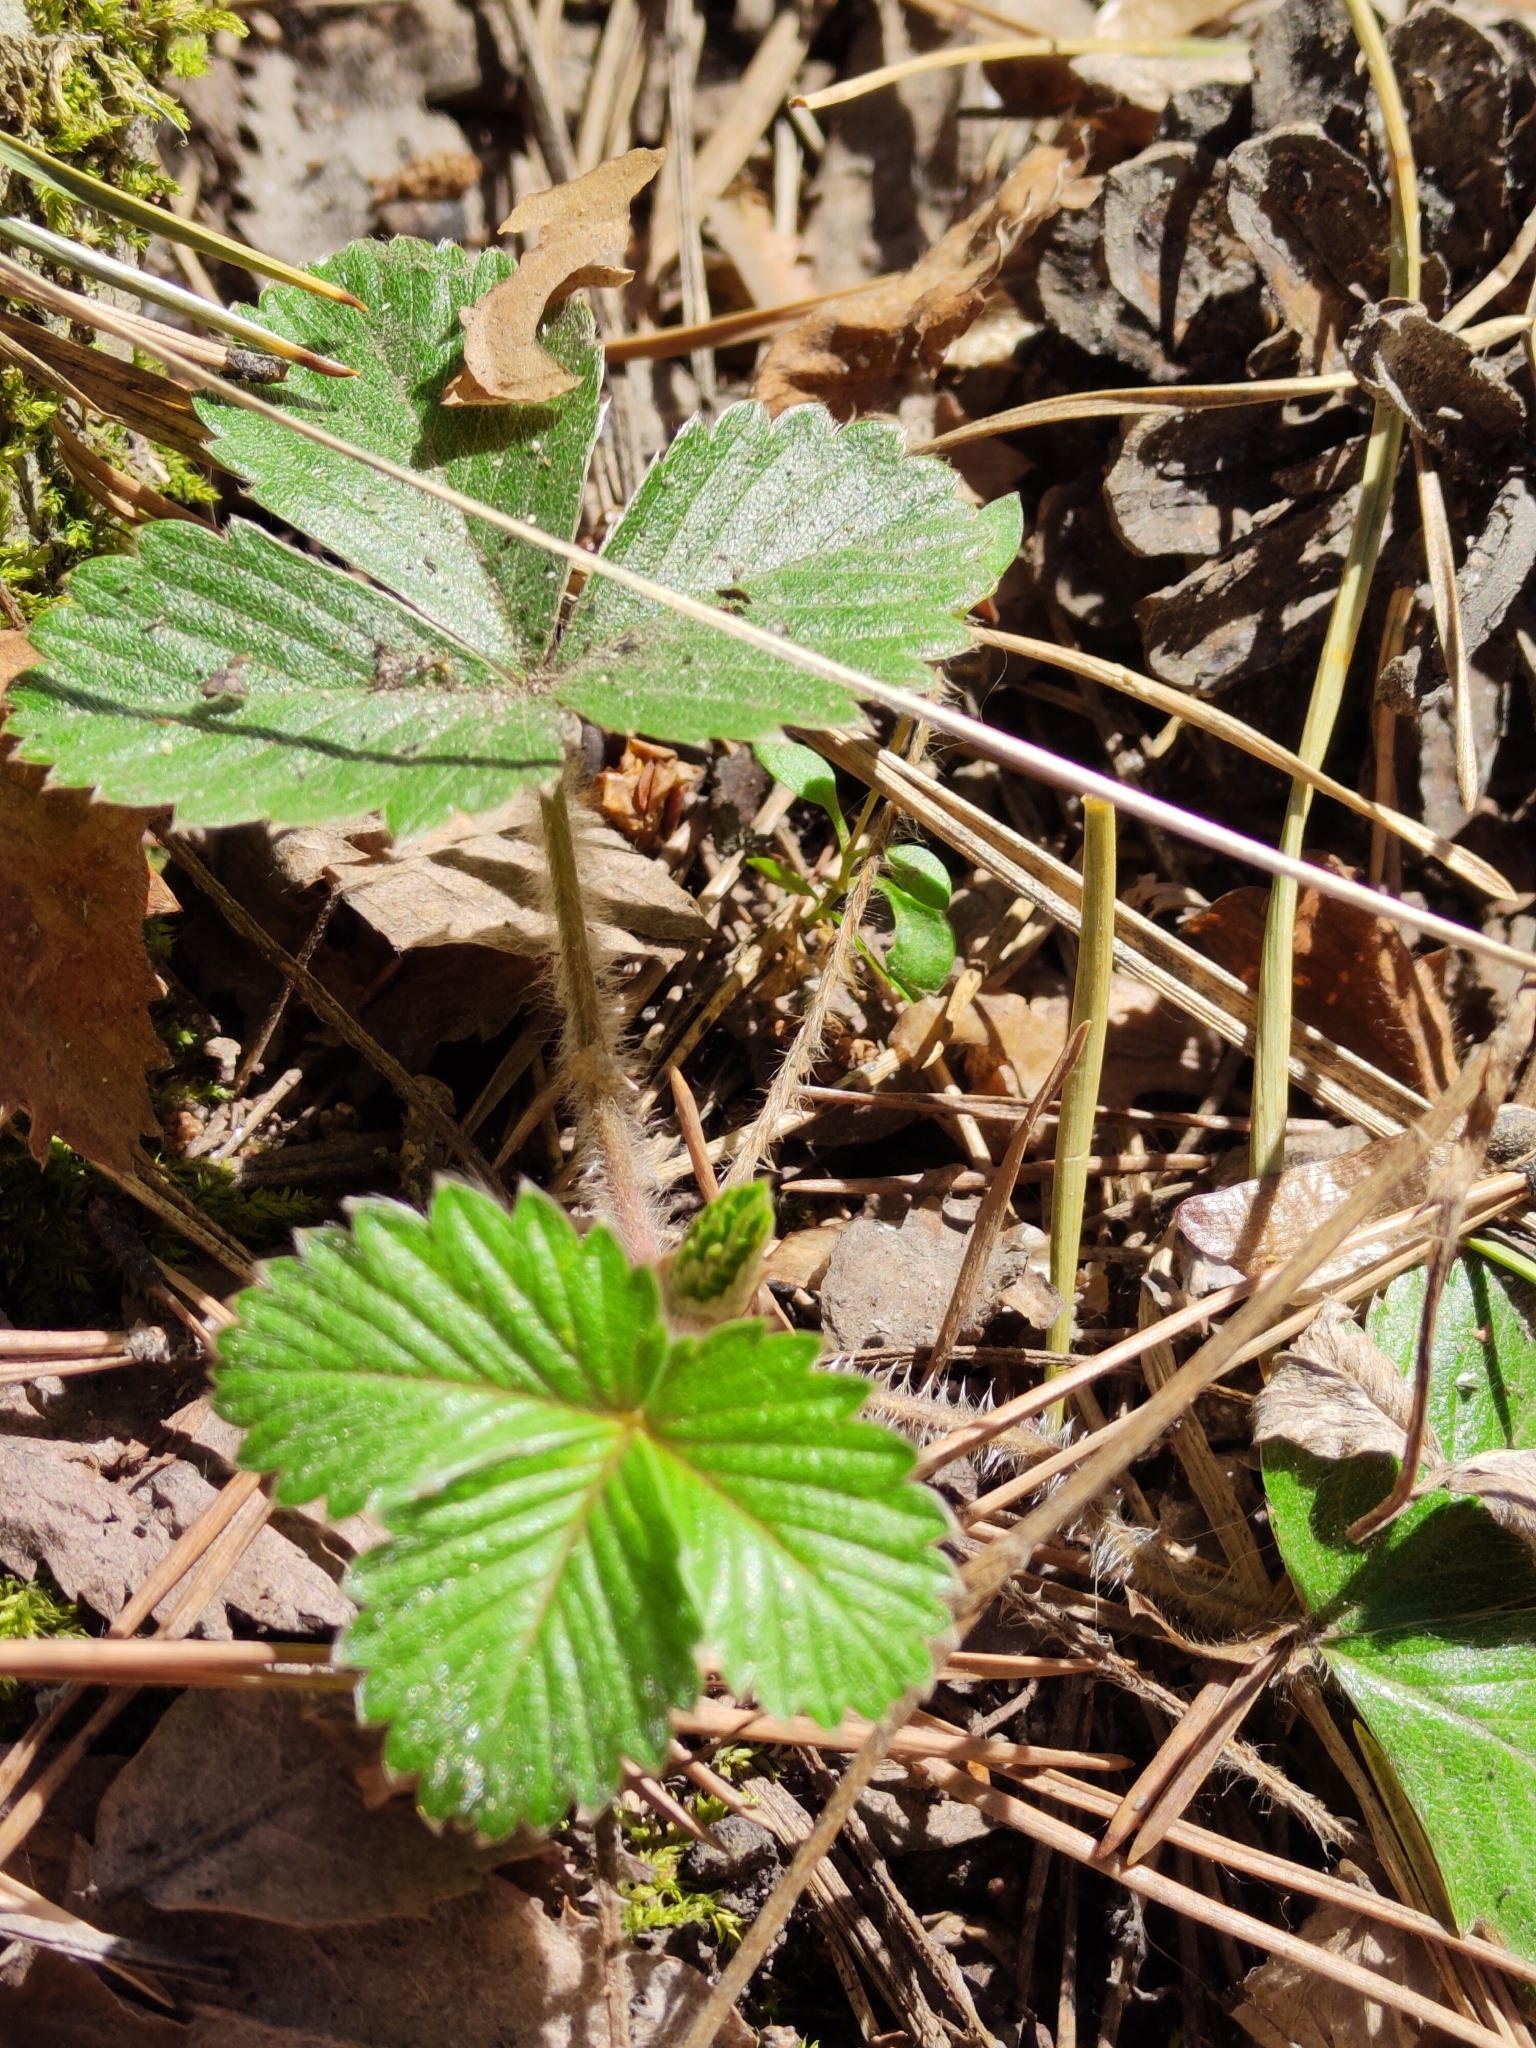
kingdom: Plantae
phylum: Tracheophyta
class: Magnoliopsida
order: Rosales
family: Rosaceae
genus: Fragaria
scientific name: Fragaria vesca
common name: Wild strawberry
